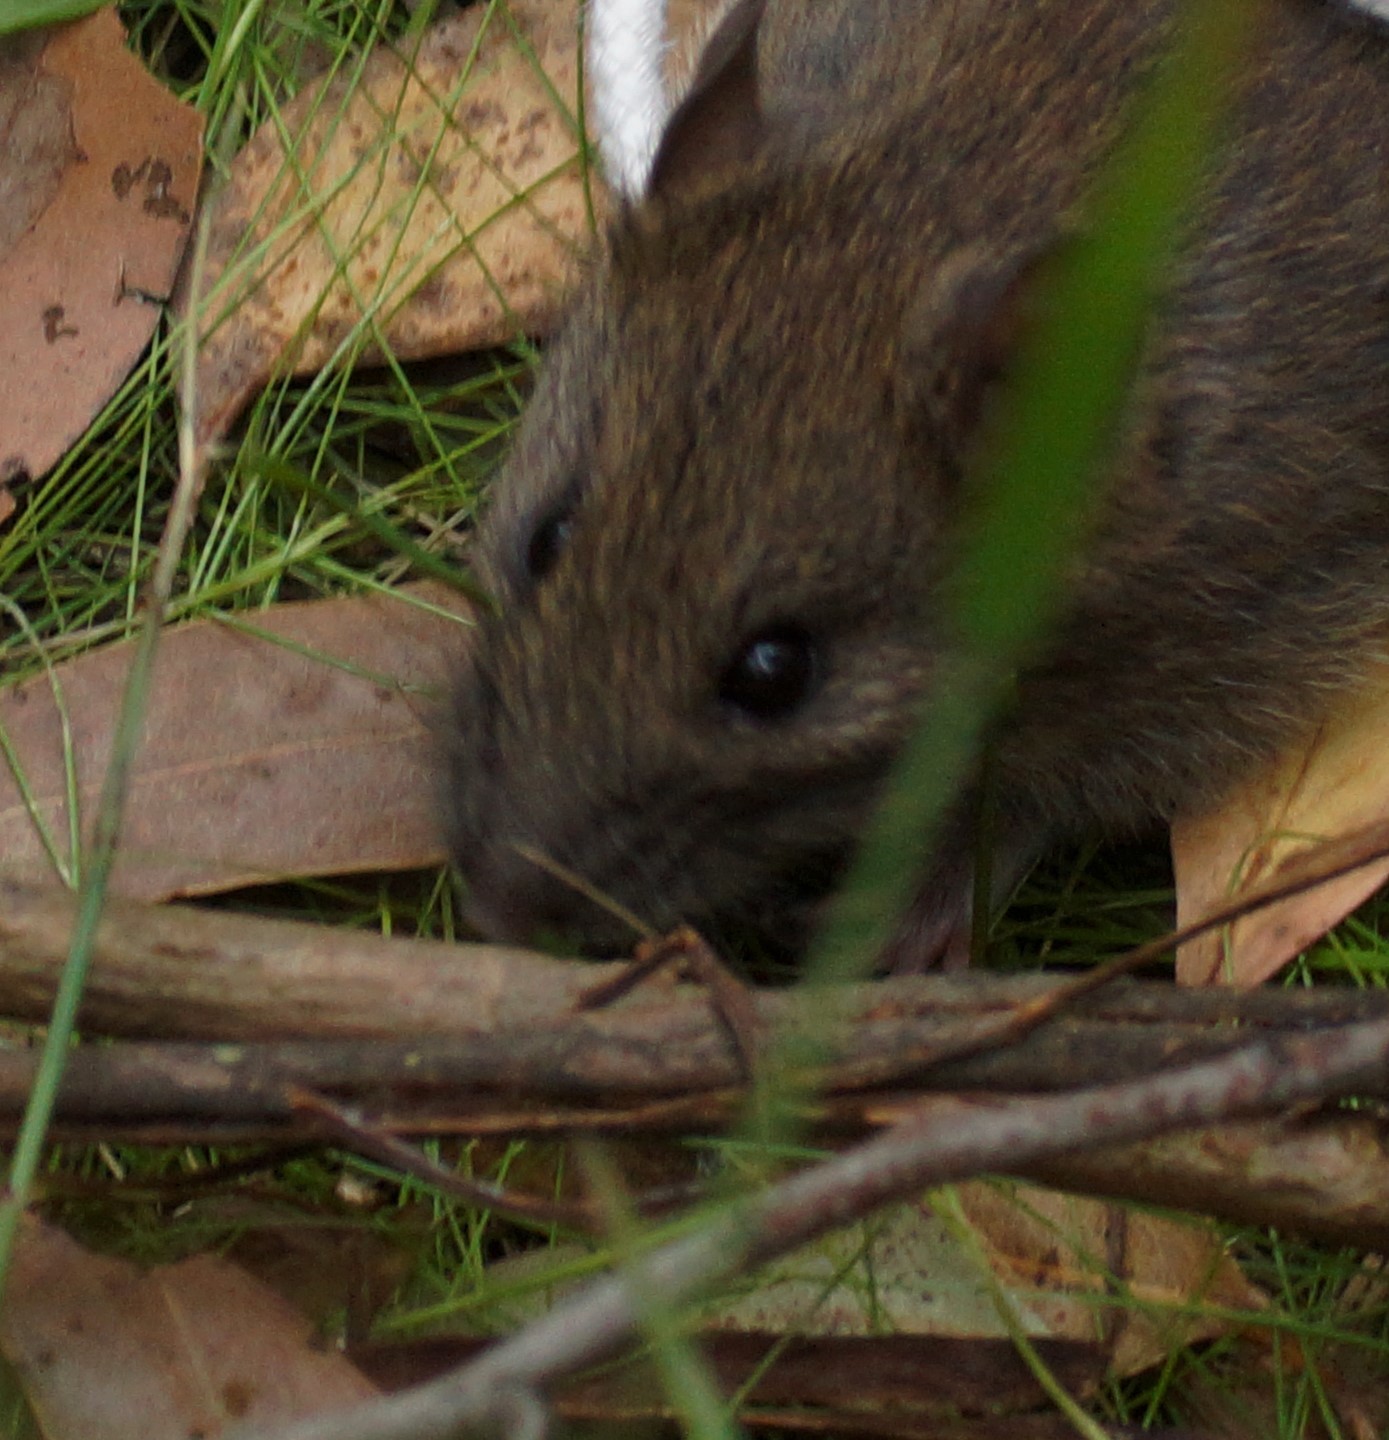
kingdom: Animalia
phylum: Chordata
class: Mammalia
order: Rodentia
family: Muridae
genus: Rattus
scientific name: Rattus fuscipes
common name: Australian bush rat
